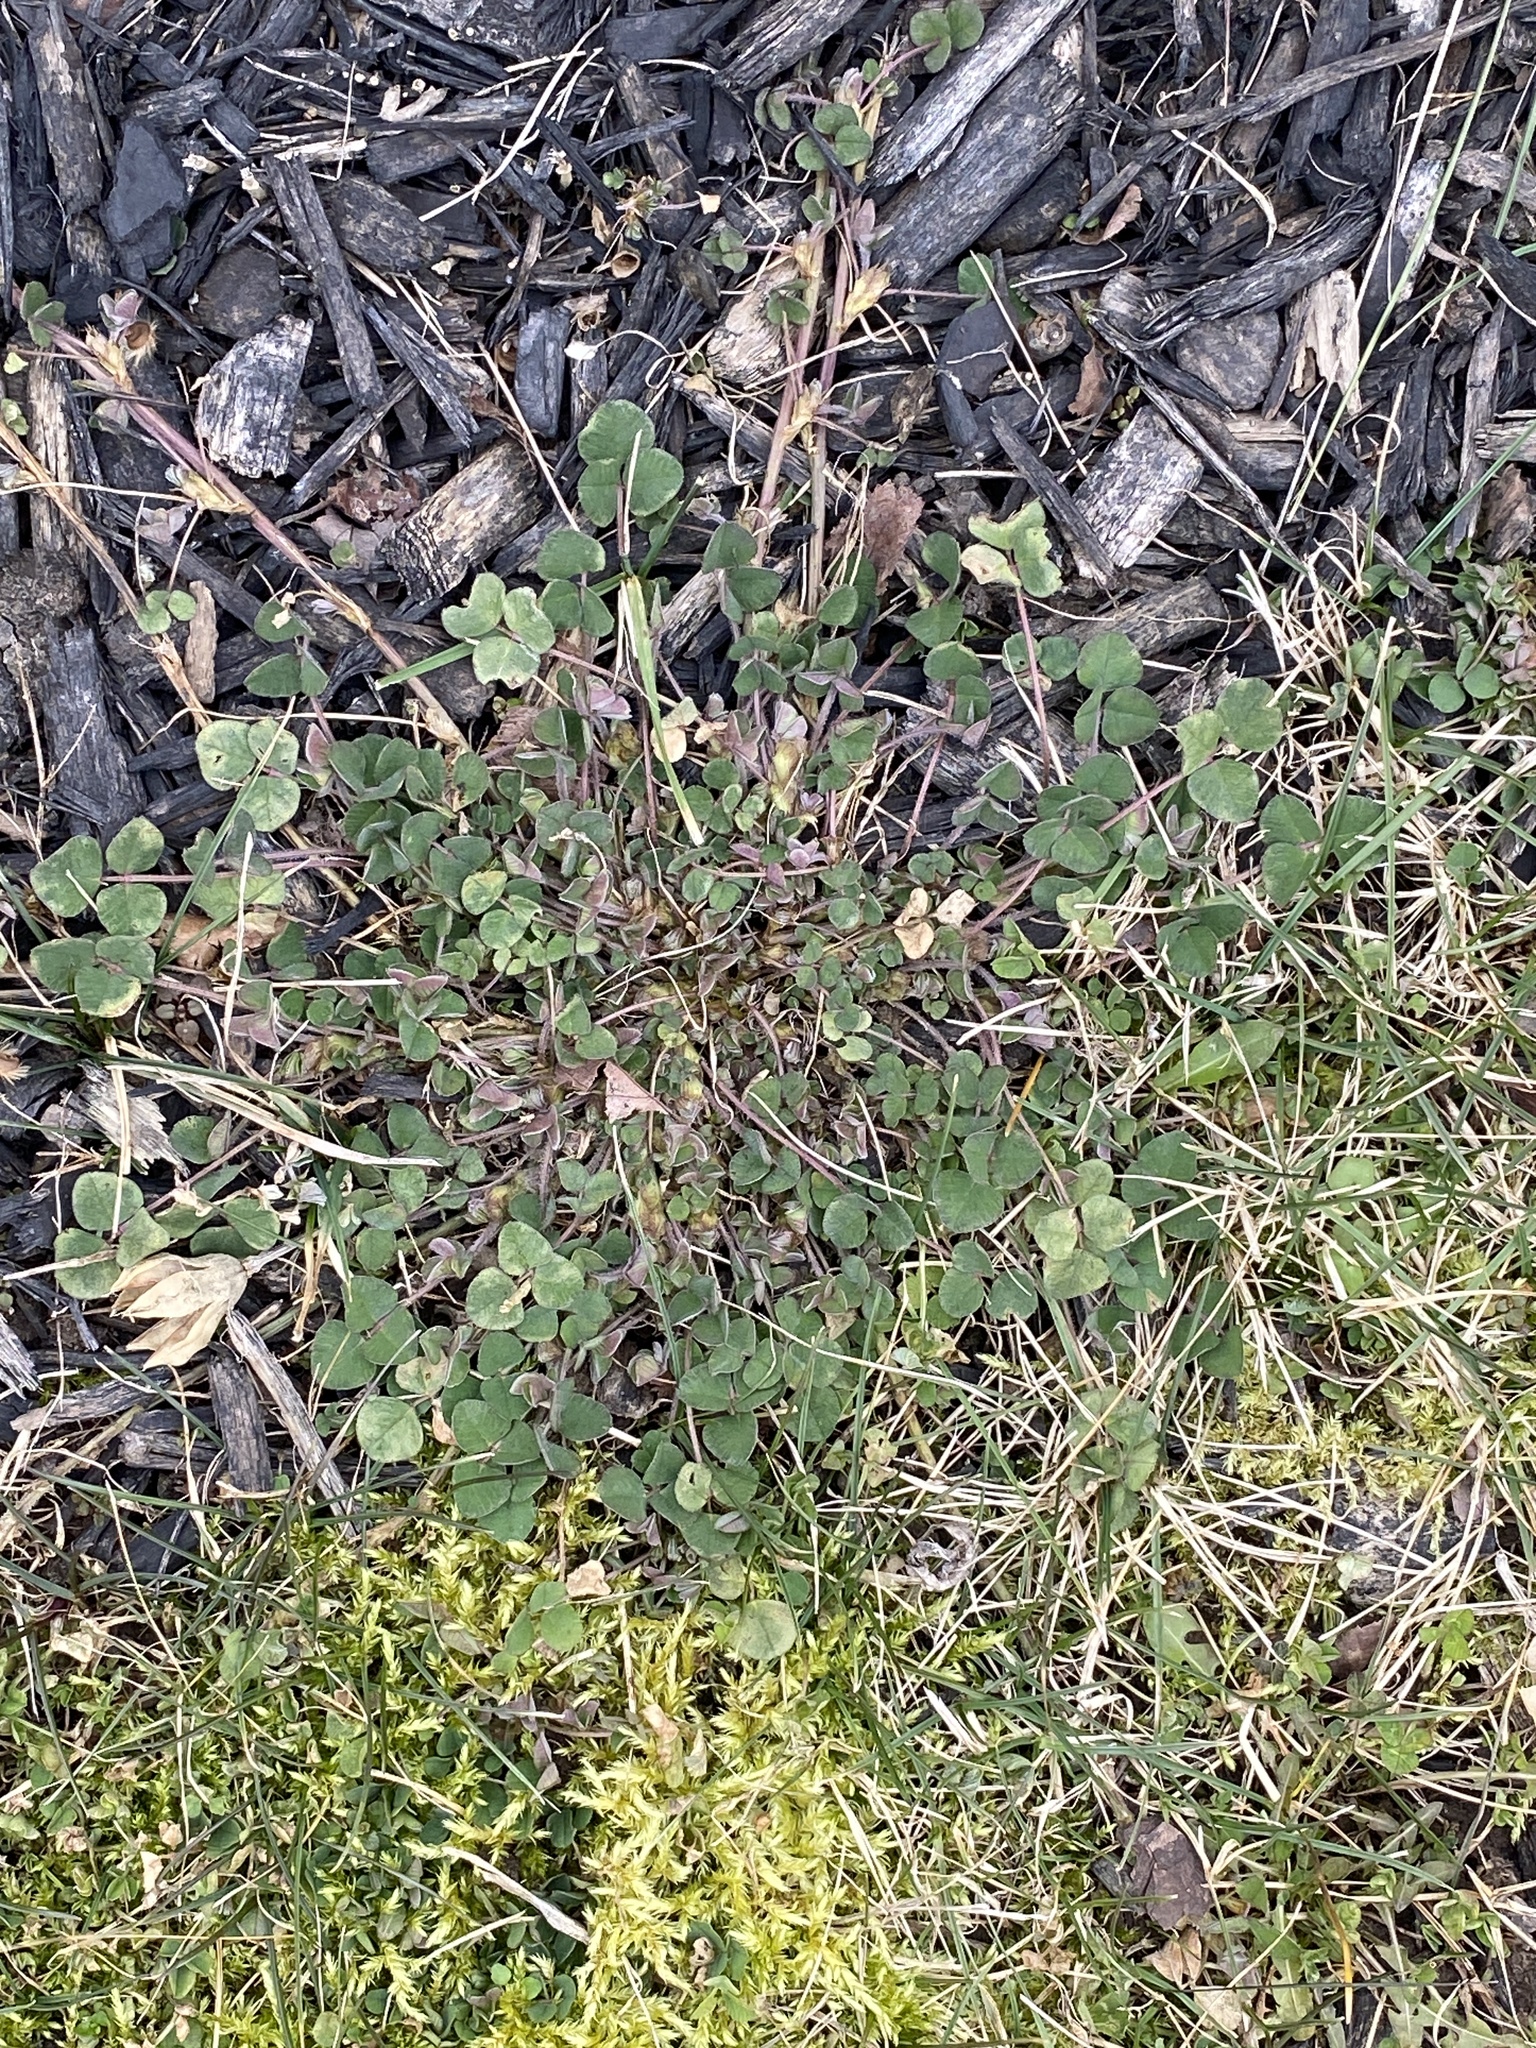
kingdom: Plantae
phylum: Tracheophyta
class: Magnoliopsida
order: Fabales
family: Fabaceae
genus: Medicago
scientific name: Medicago lupulina
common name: Black medick
